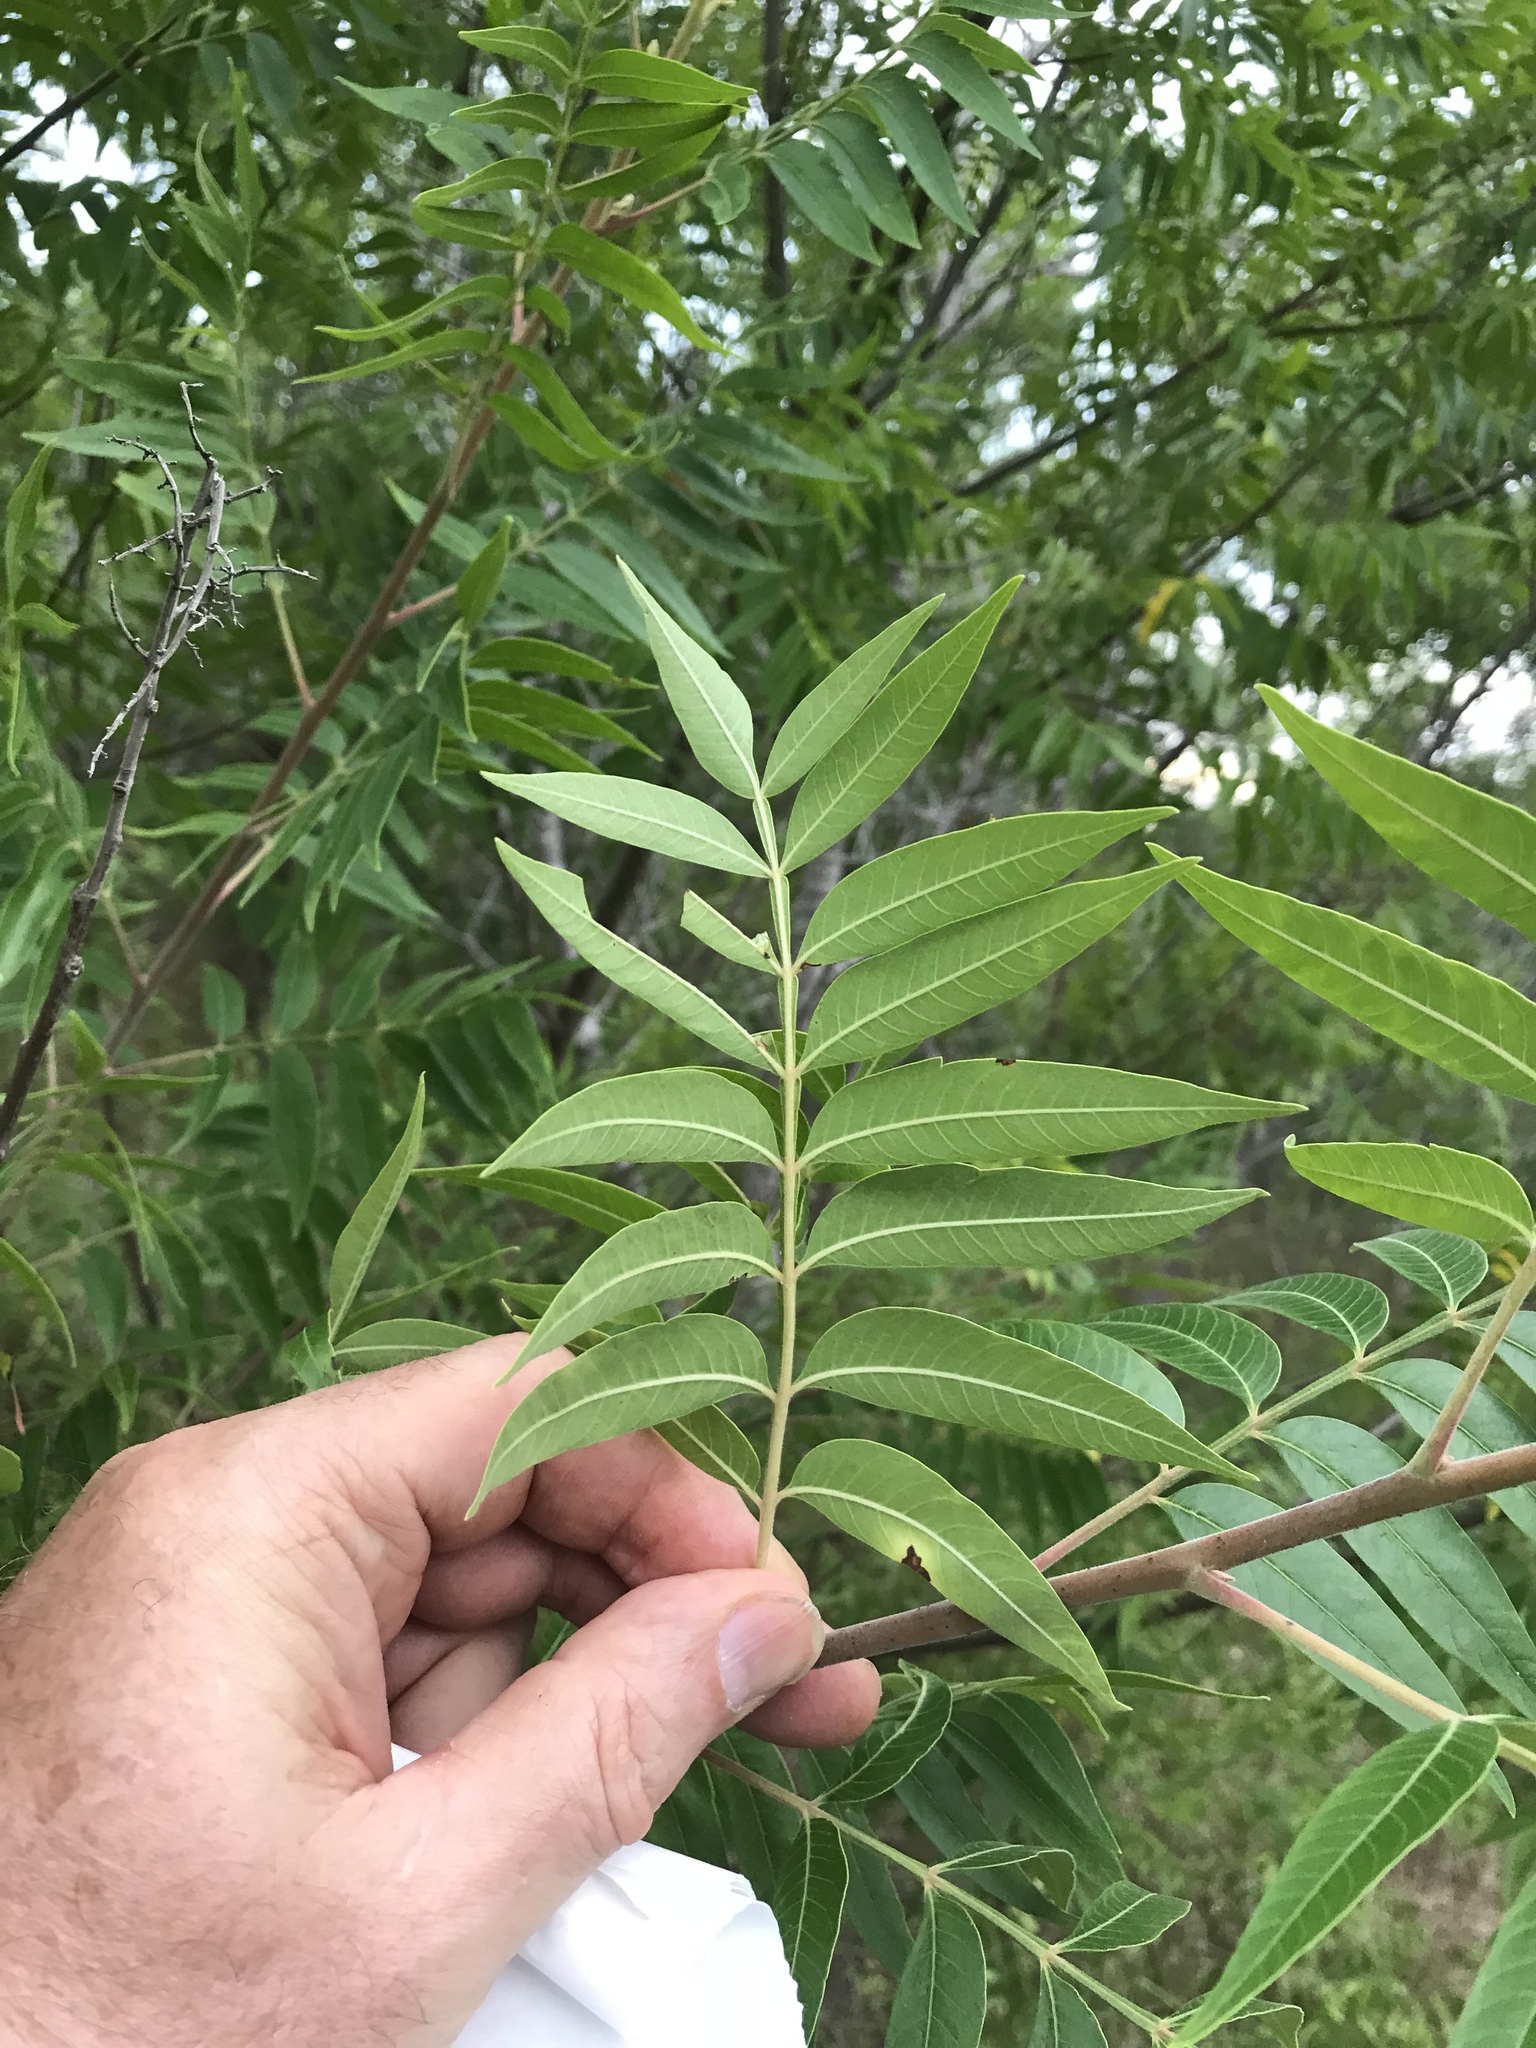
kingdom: Plantae
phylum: Tracheophyta
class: Magnoliopsida
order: Sapindales
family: Anacardiaceae
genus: Rhus
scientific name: Rhus lanceolata
